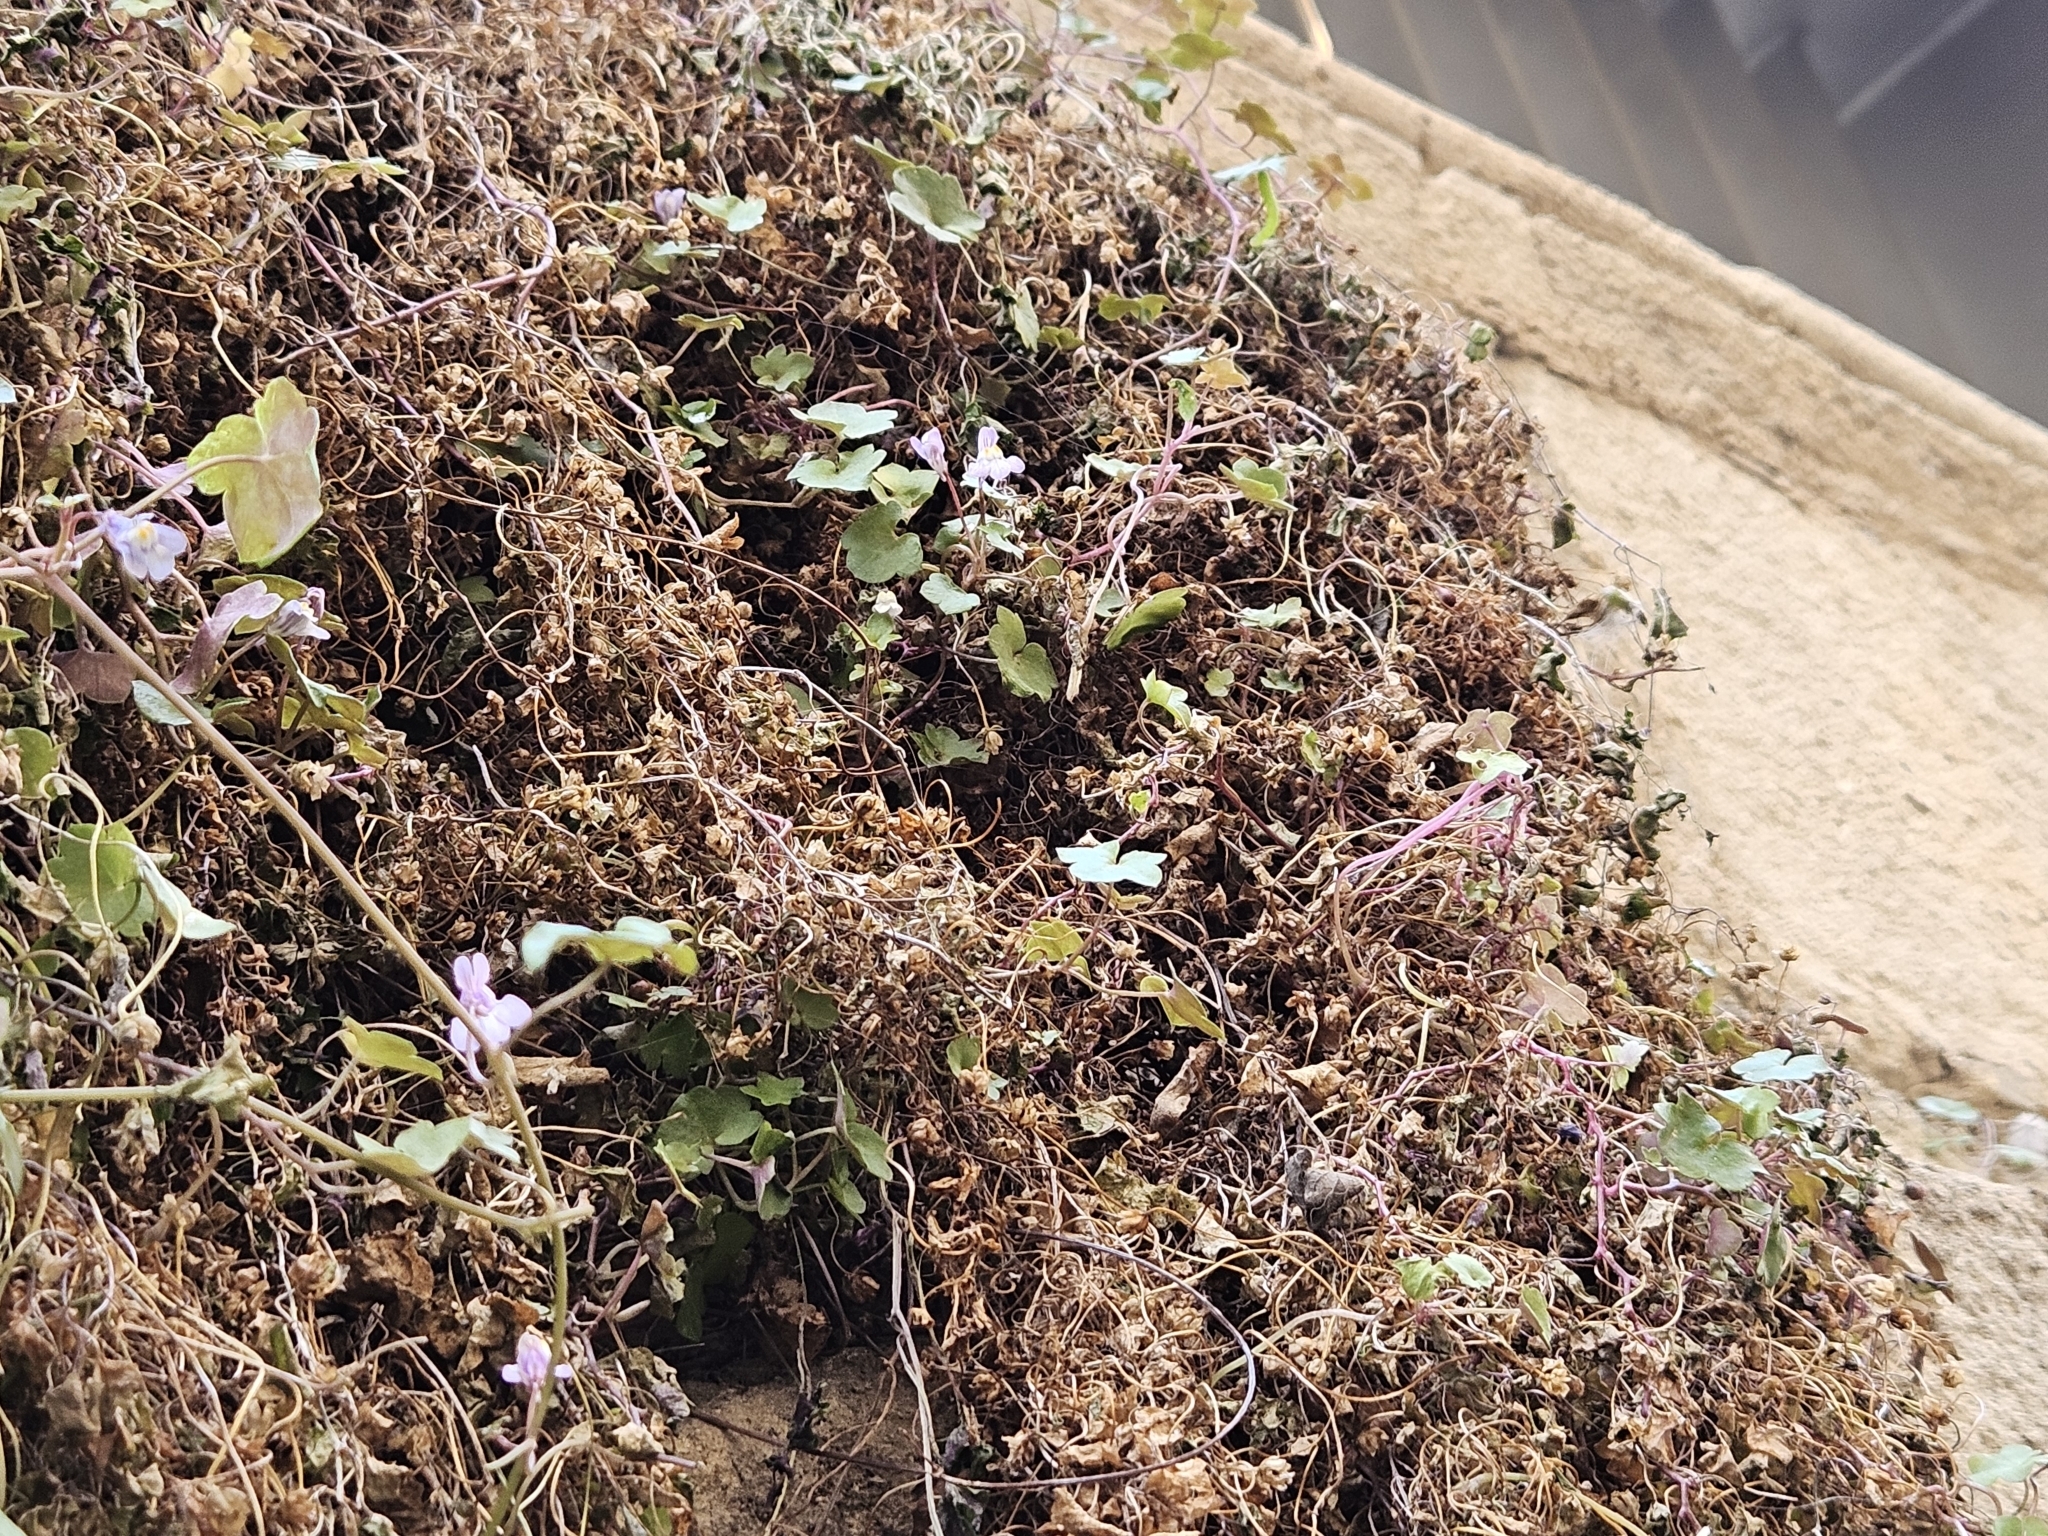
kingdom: Plantae
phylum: Tracheophyta
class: Magnoliopsida
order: Lamiales
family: Plantaginaceae
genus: Cymbalaria
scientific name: Cymbalaria muralis
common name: Ivy-leaved toadflax
